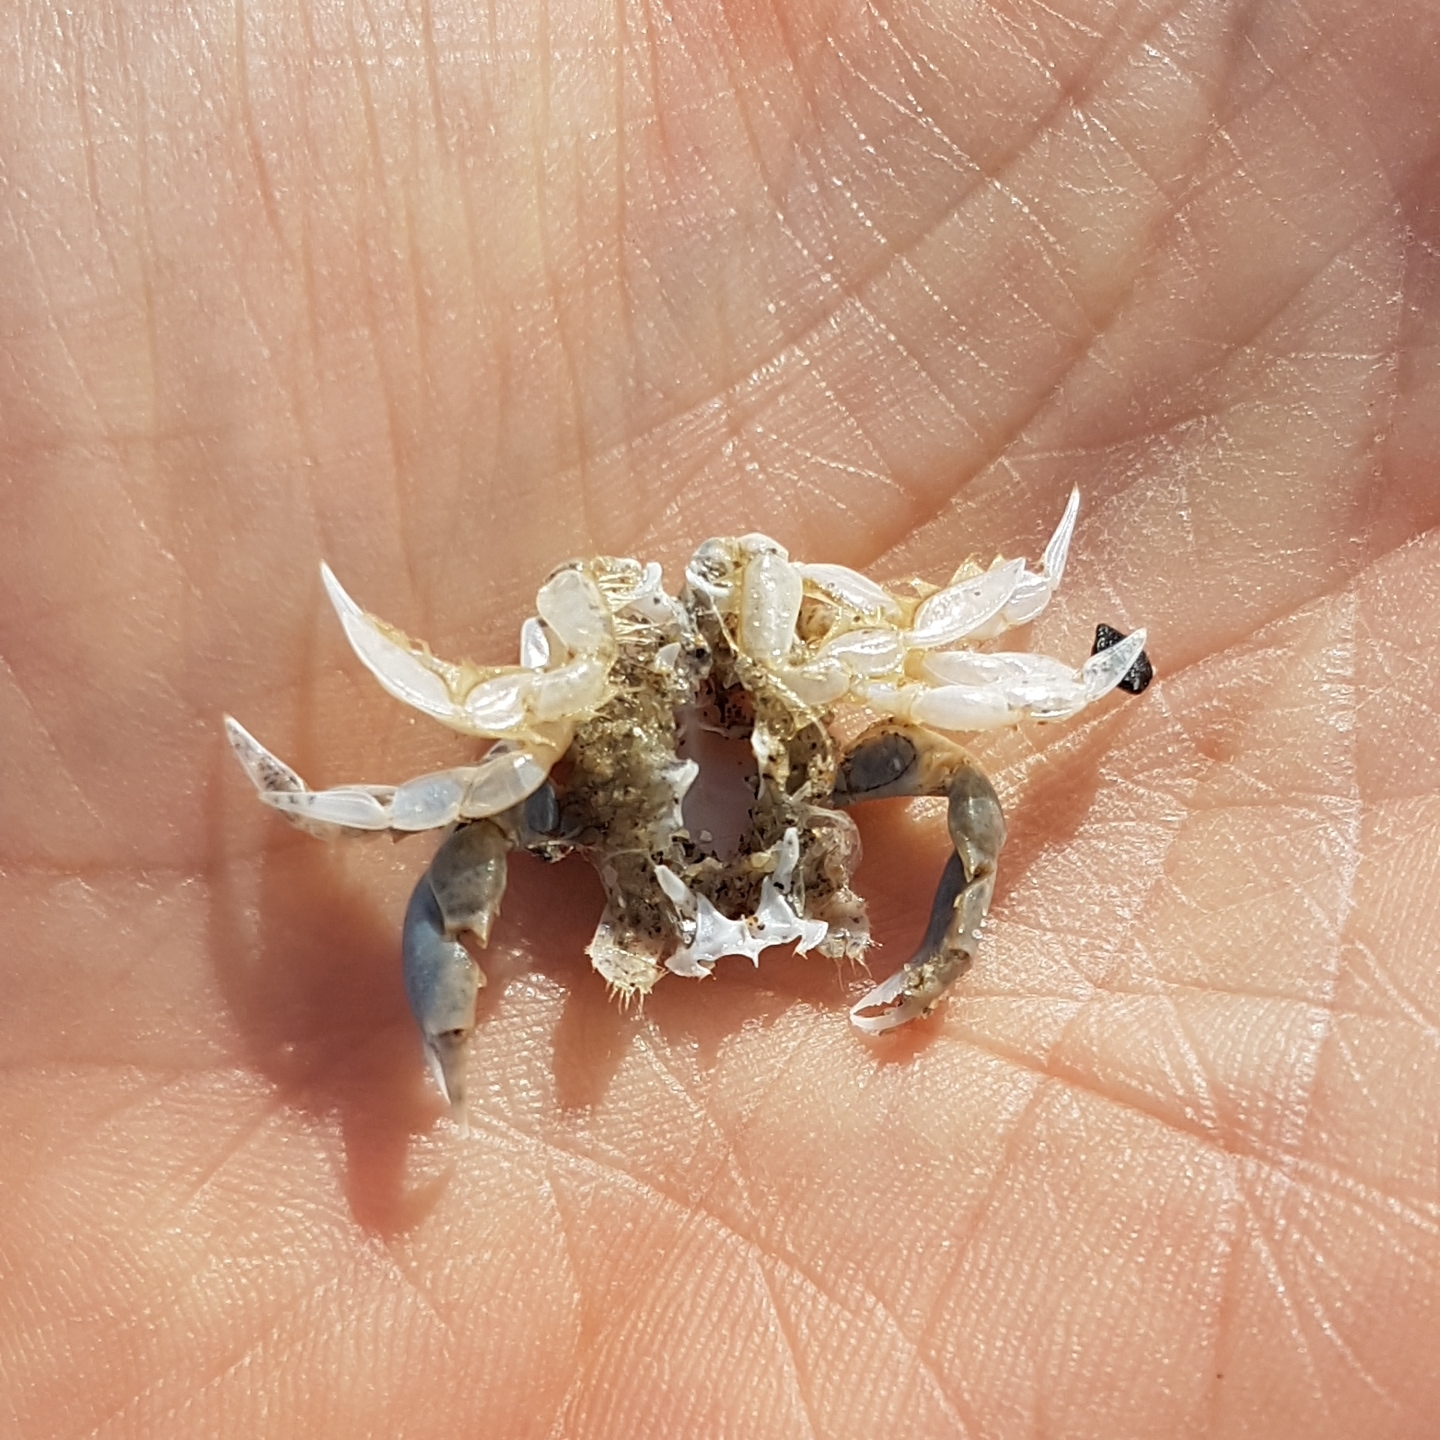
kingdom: Animalia
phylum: Arthropoda
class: Malacostraca
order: Decapoda
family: Carcinidae
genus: Portumnus
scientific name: Portumnus latipes
